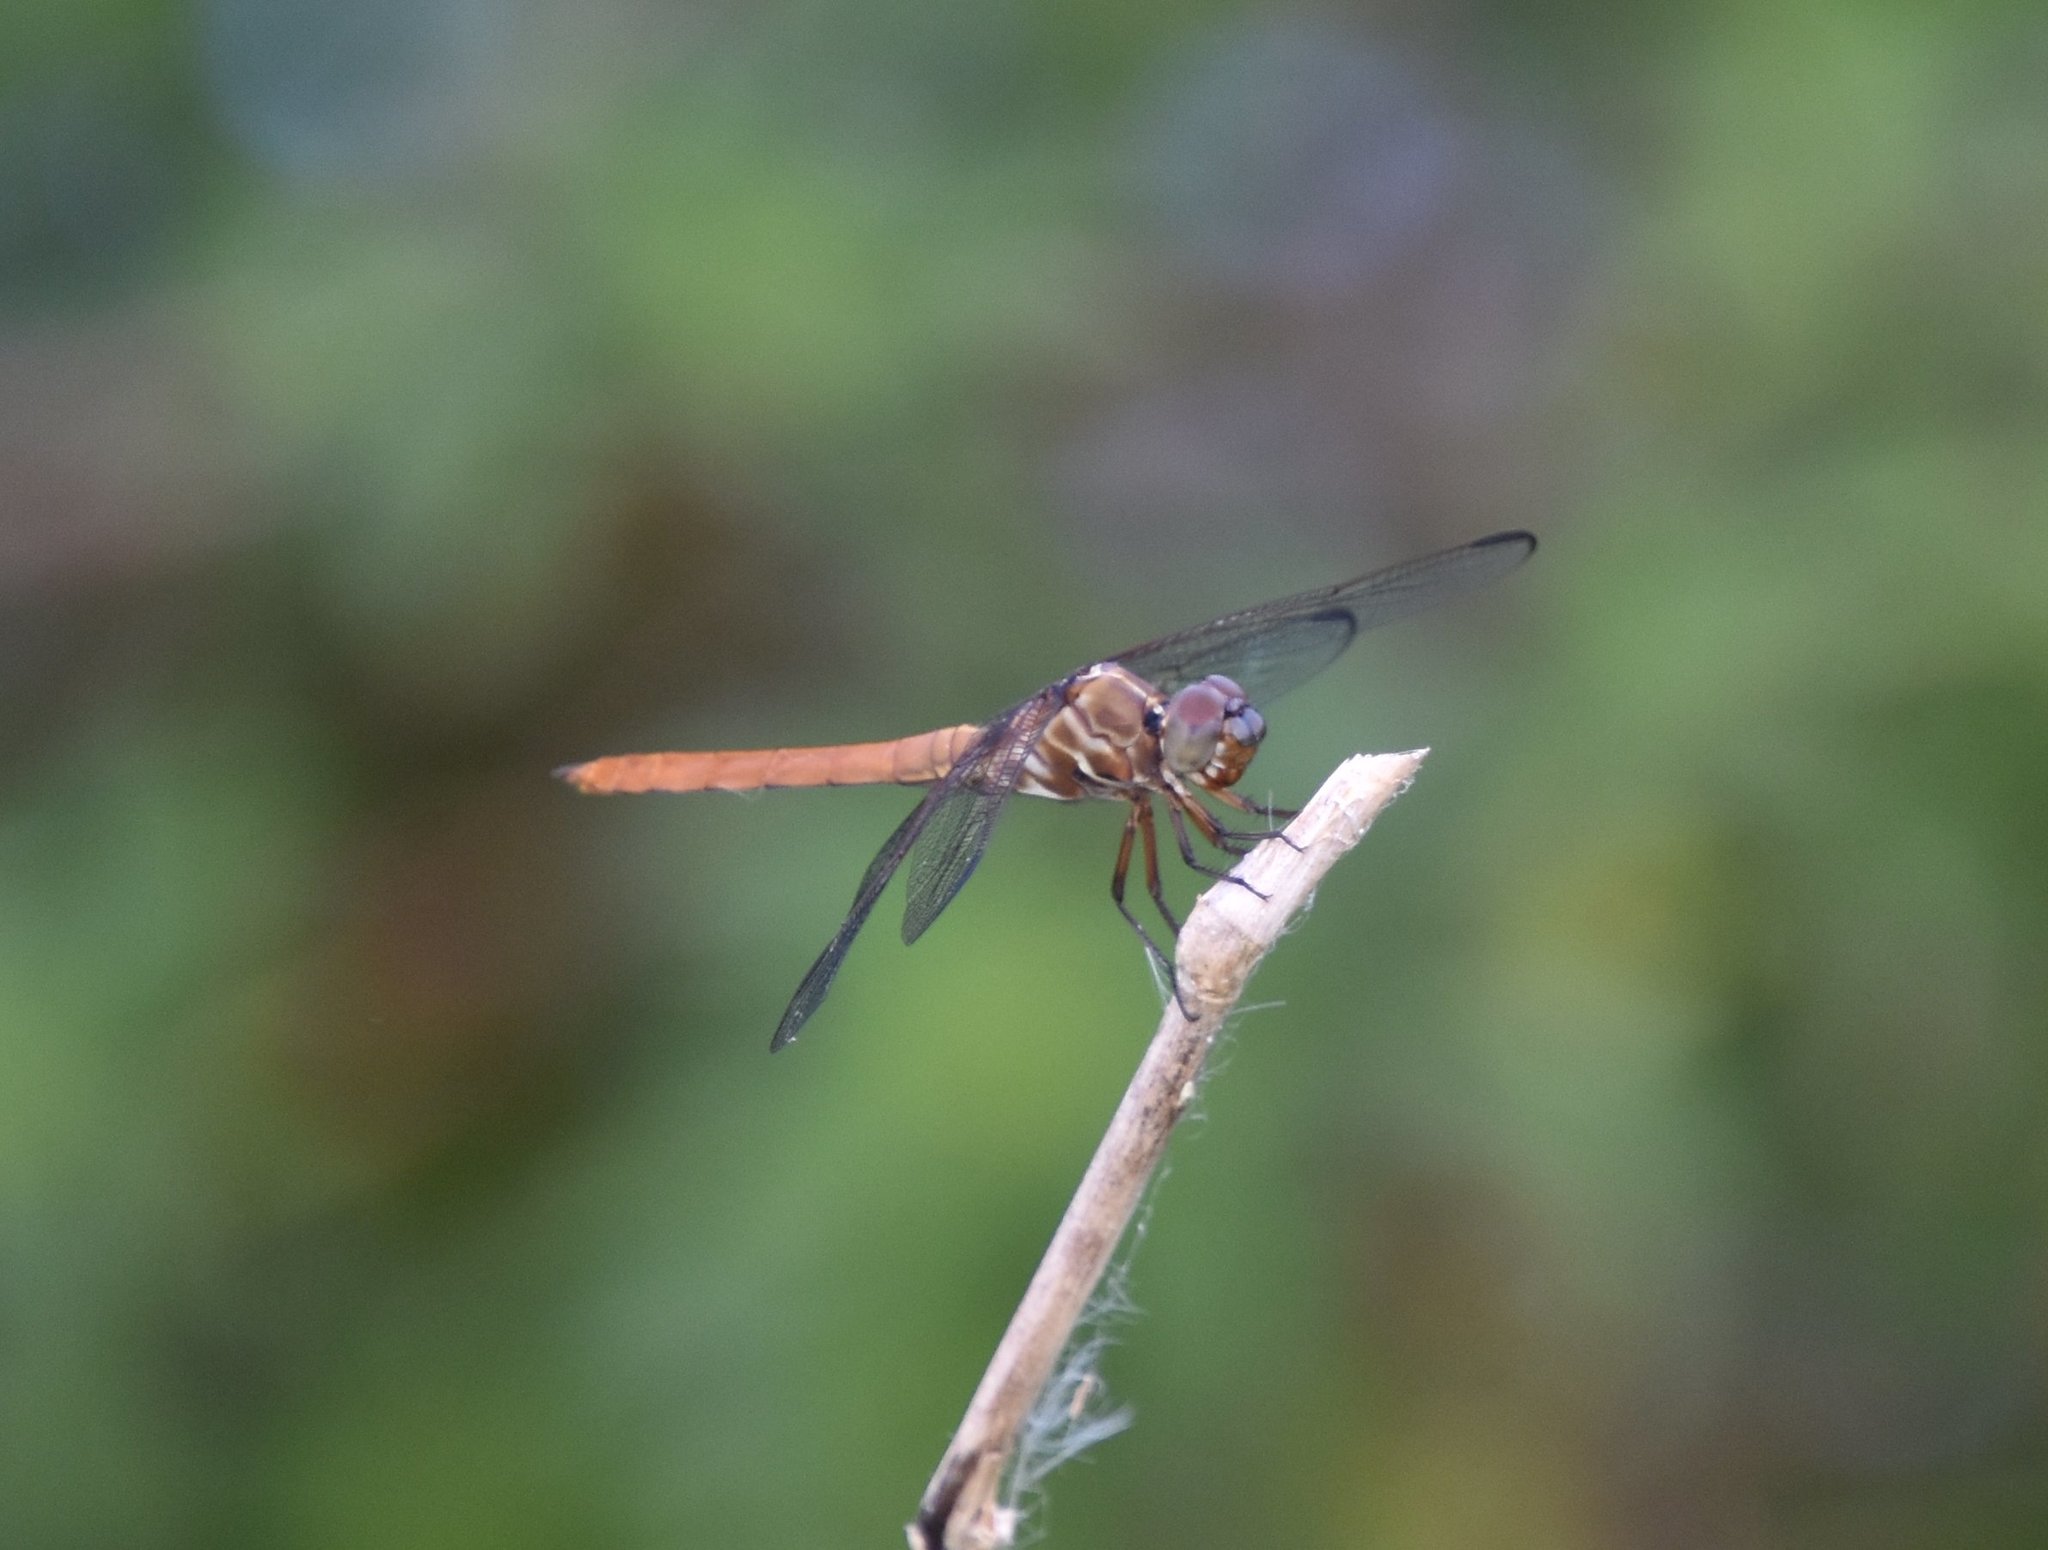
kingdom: Animalia
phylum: Arthropoda
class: Insecta
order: Odonata
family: Libellulidae
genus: Orthemis
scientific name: Orthemis ferruginea
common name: Roseate skimmer
